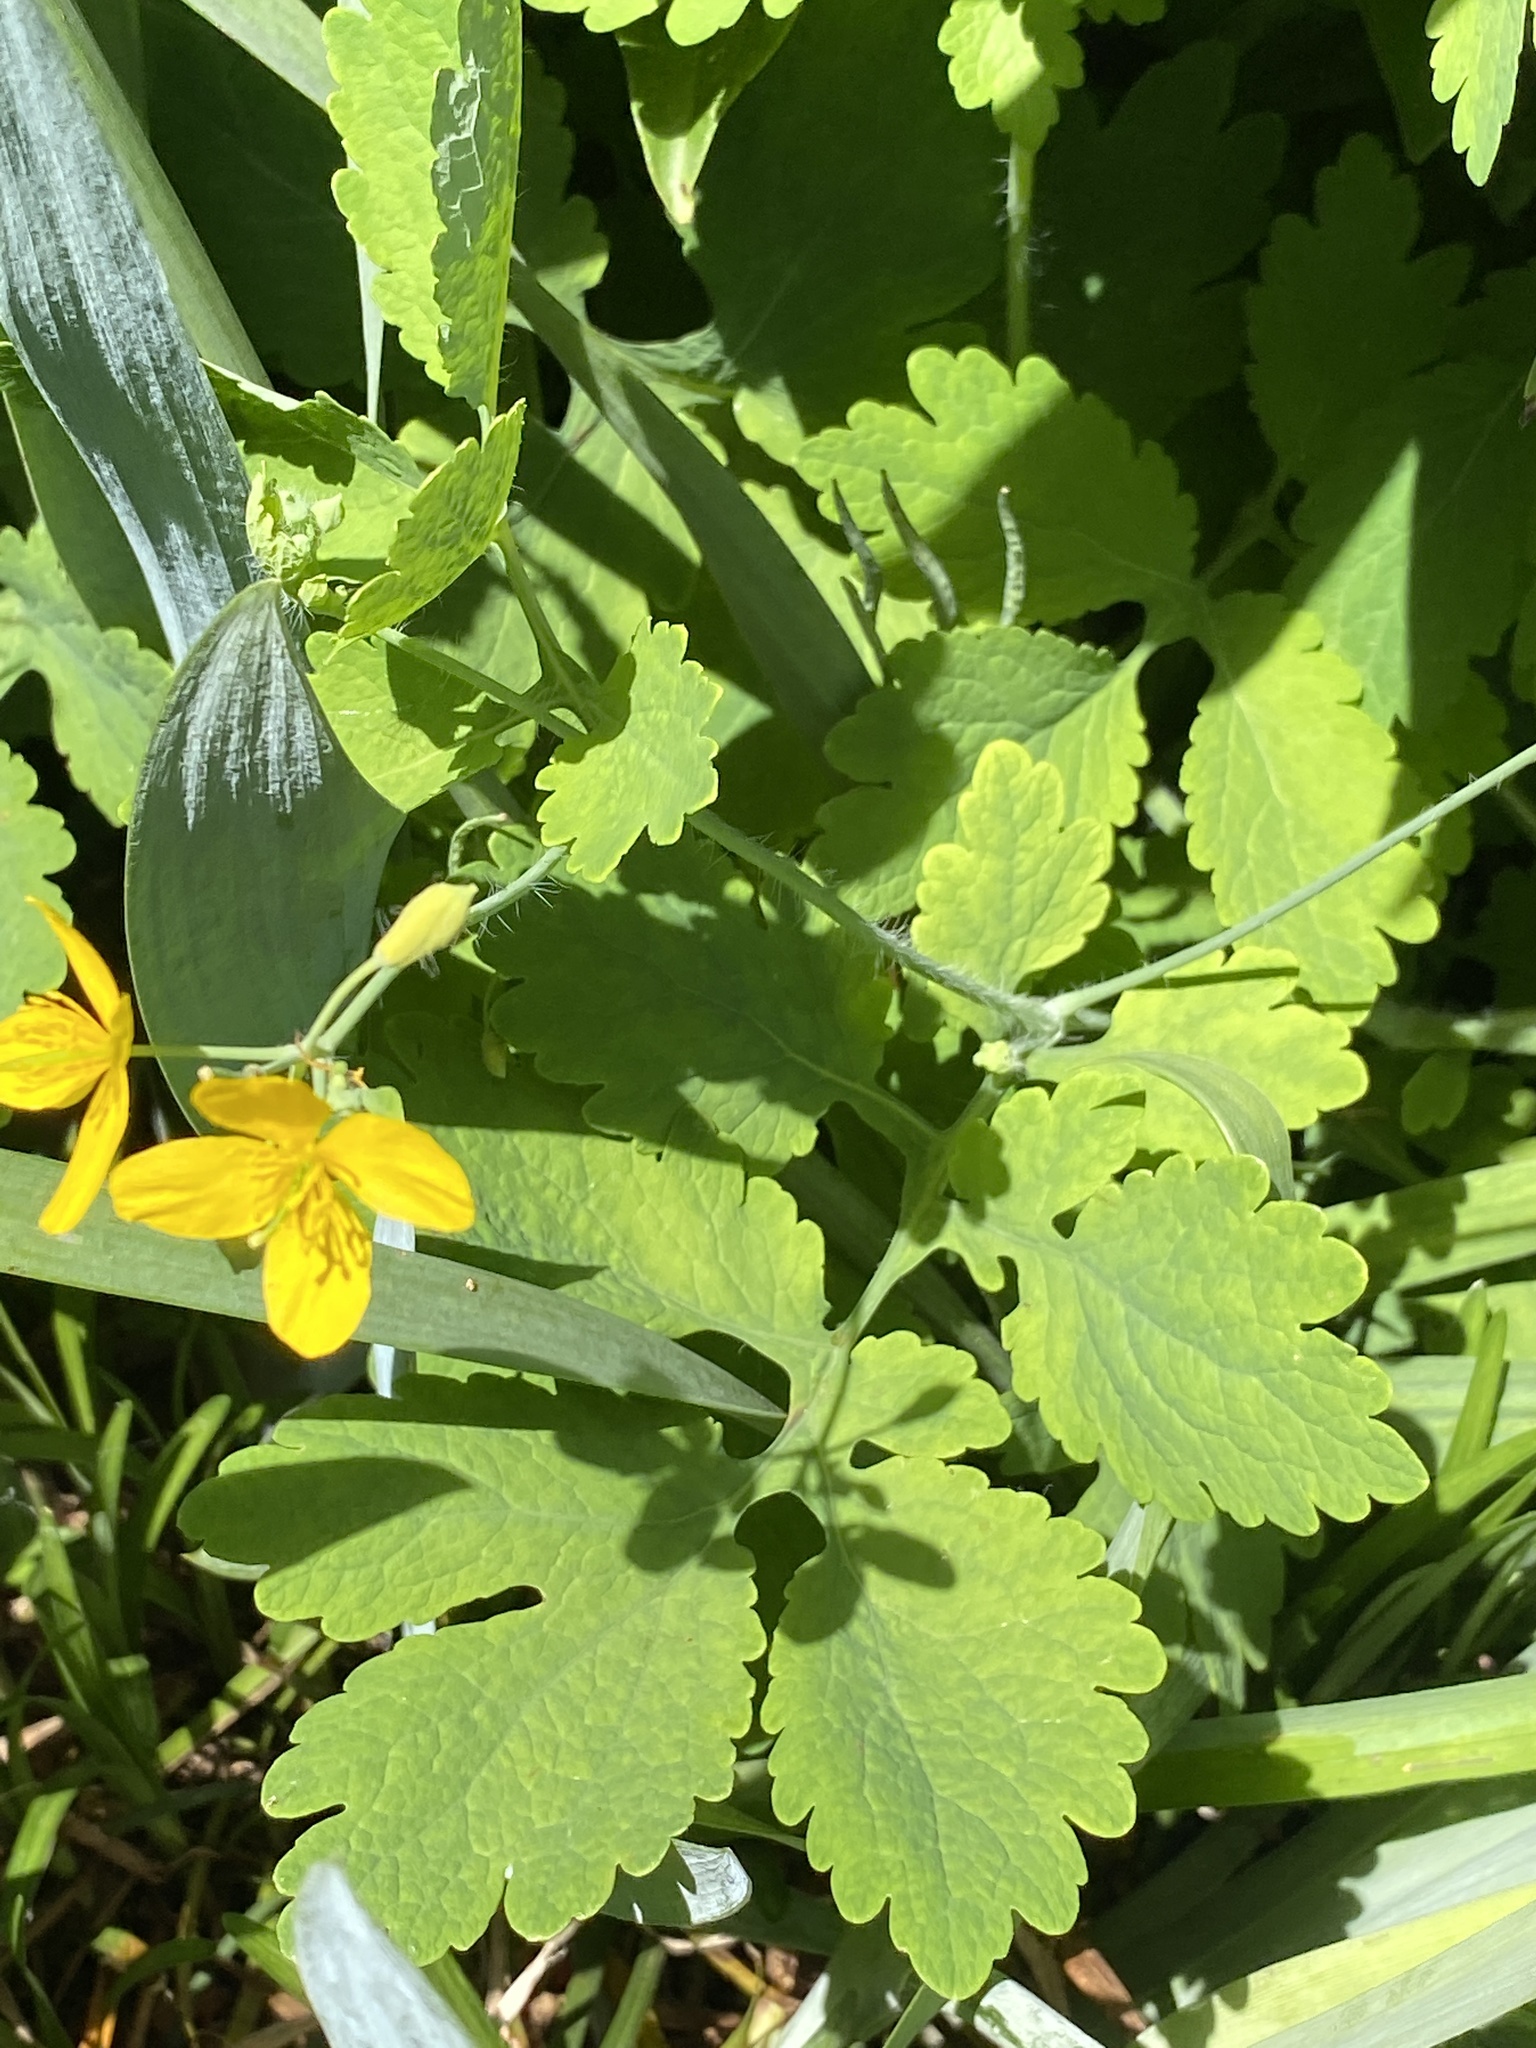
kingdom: Plantae
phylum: Tracheophyta
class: Magnoliopsida
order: Ranunculales
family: Papaveraceae
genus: Chelidonium
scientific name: Chelidonium majus
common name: Greater celandine
